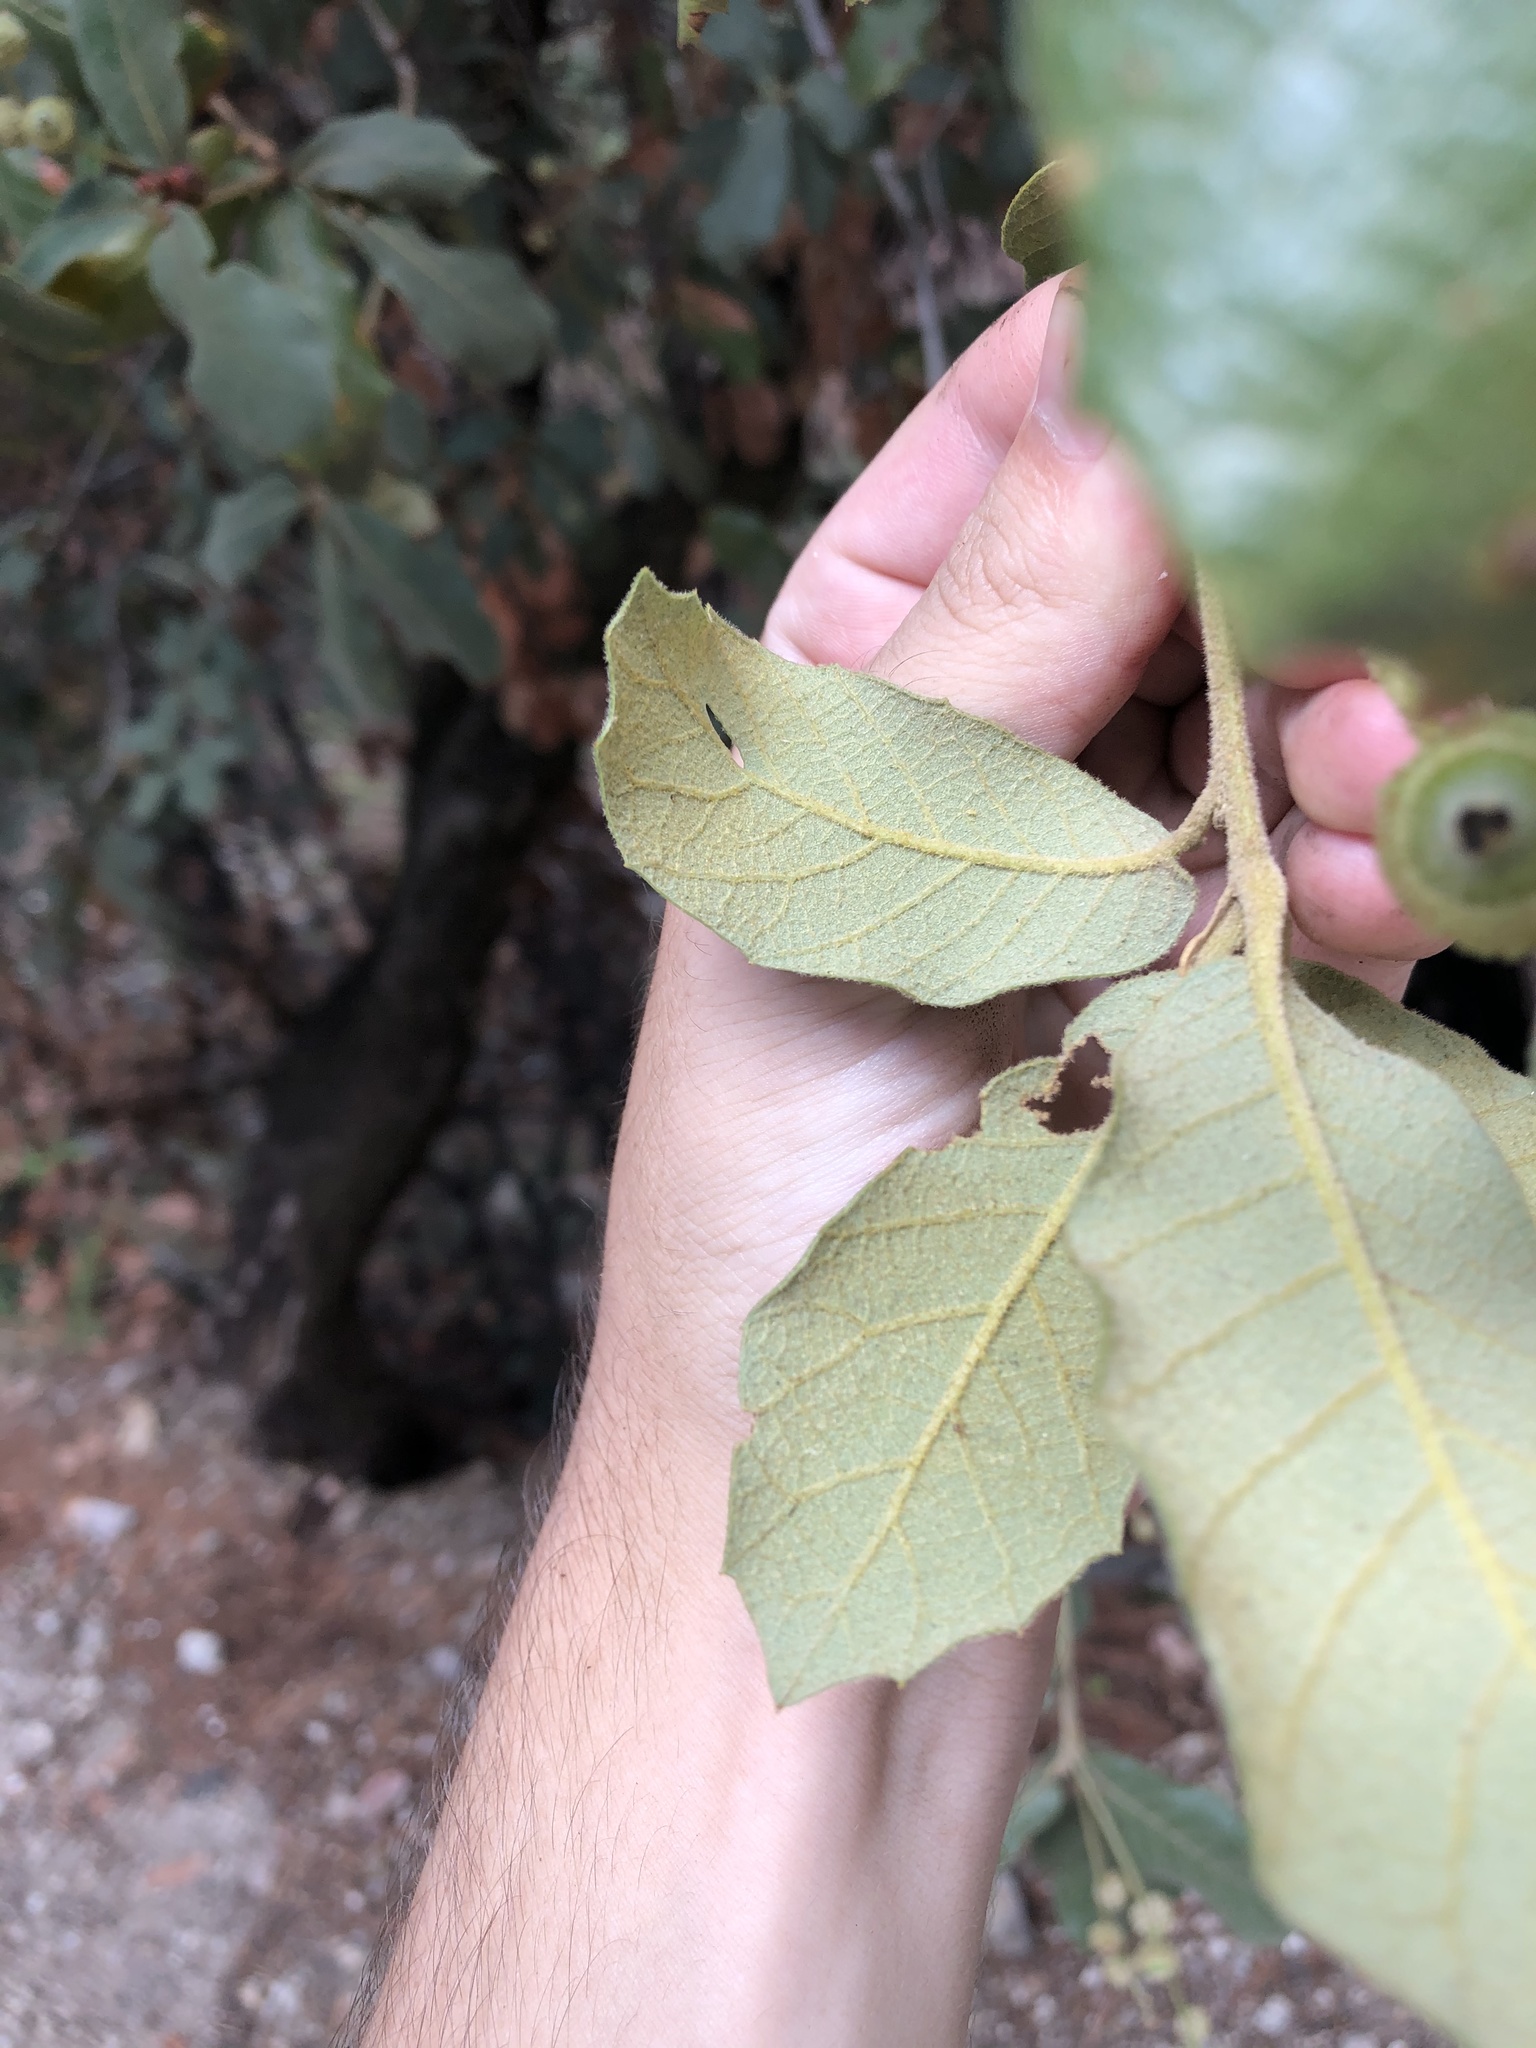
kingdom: Plantae
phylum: Tracheophyta
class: Magnoliopsida
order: Fagales
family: Fagaceae
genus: Quercus
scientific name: Quercus rugosa
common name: Netleaf oak
